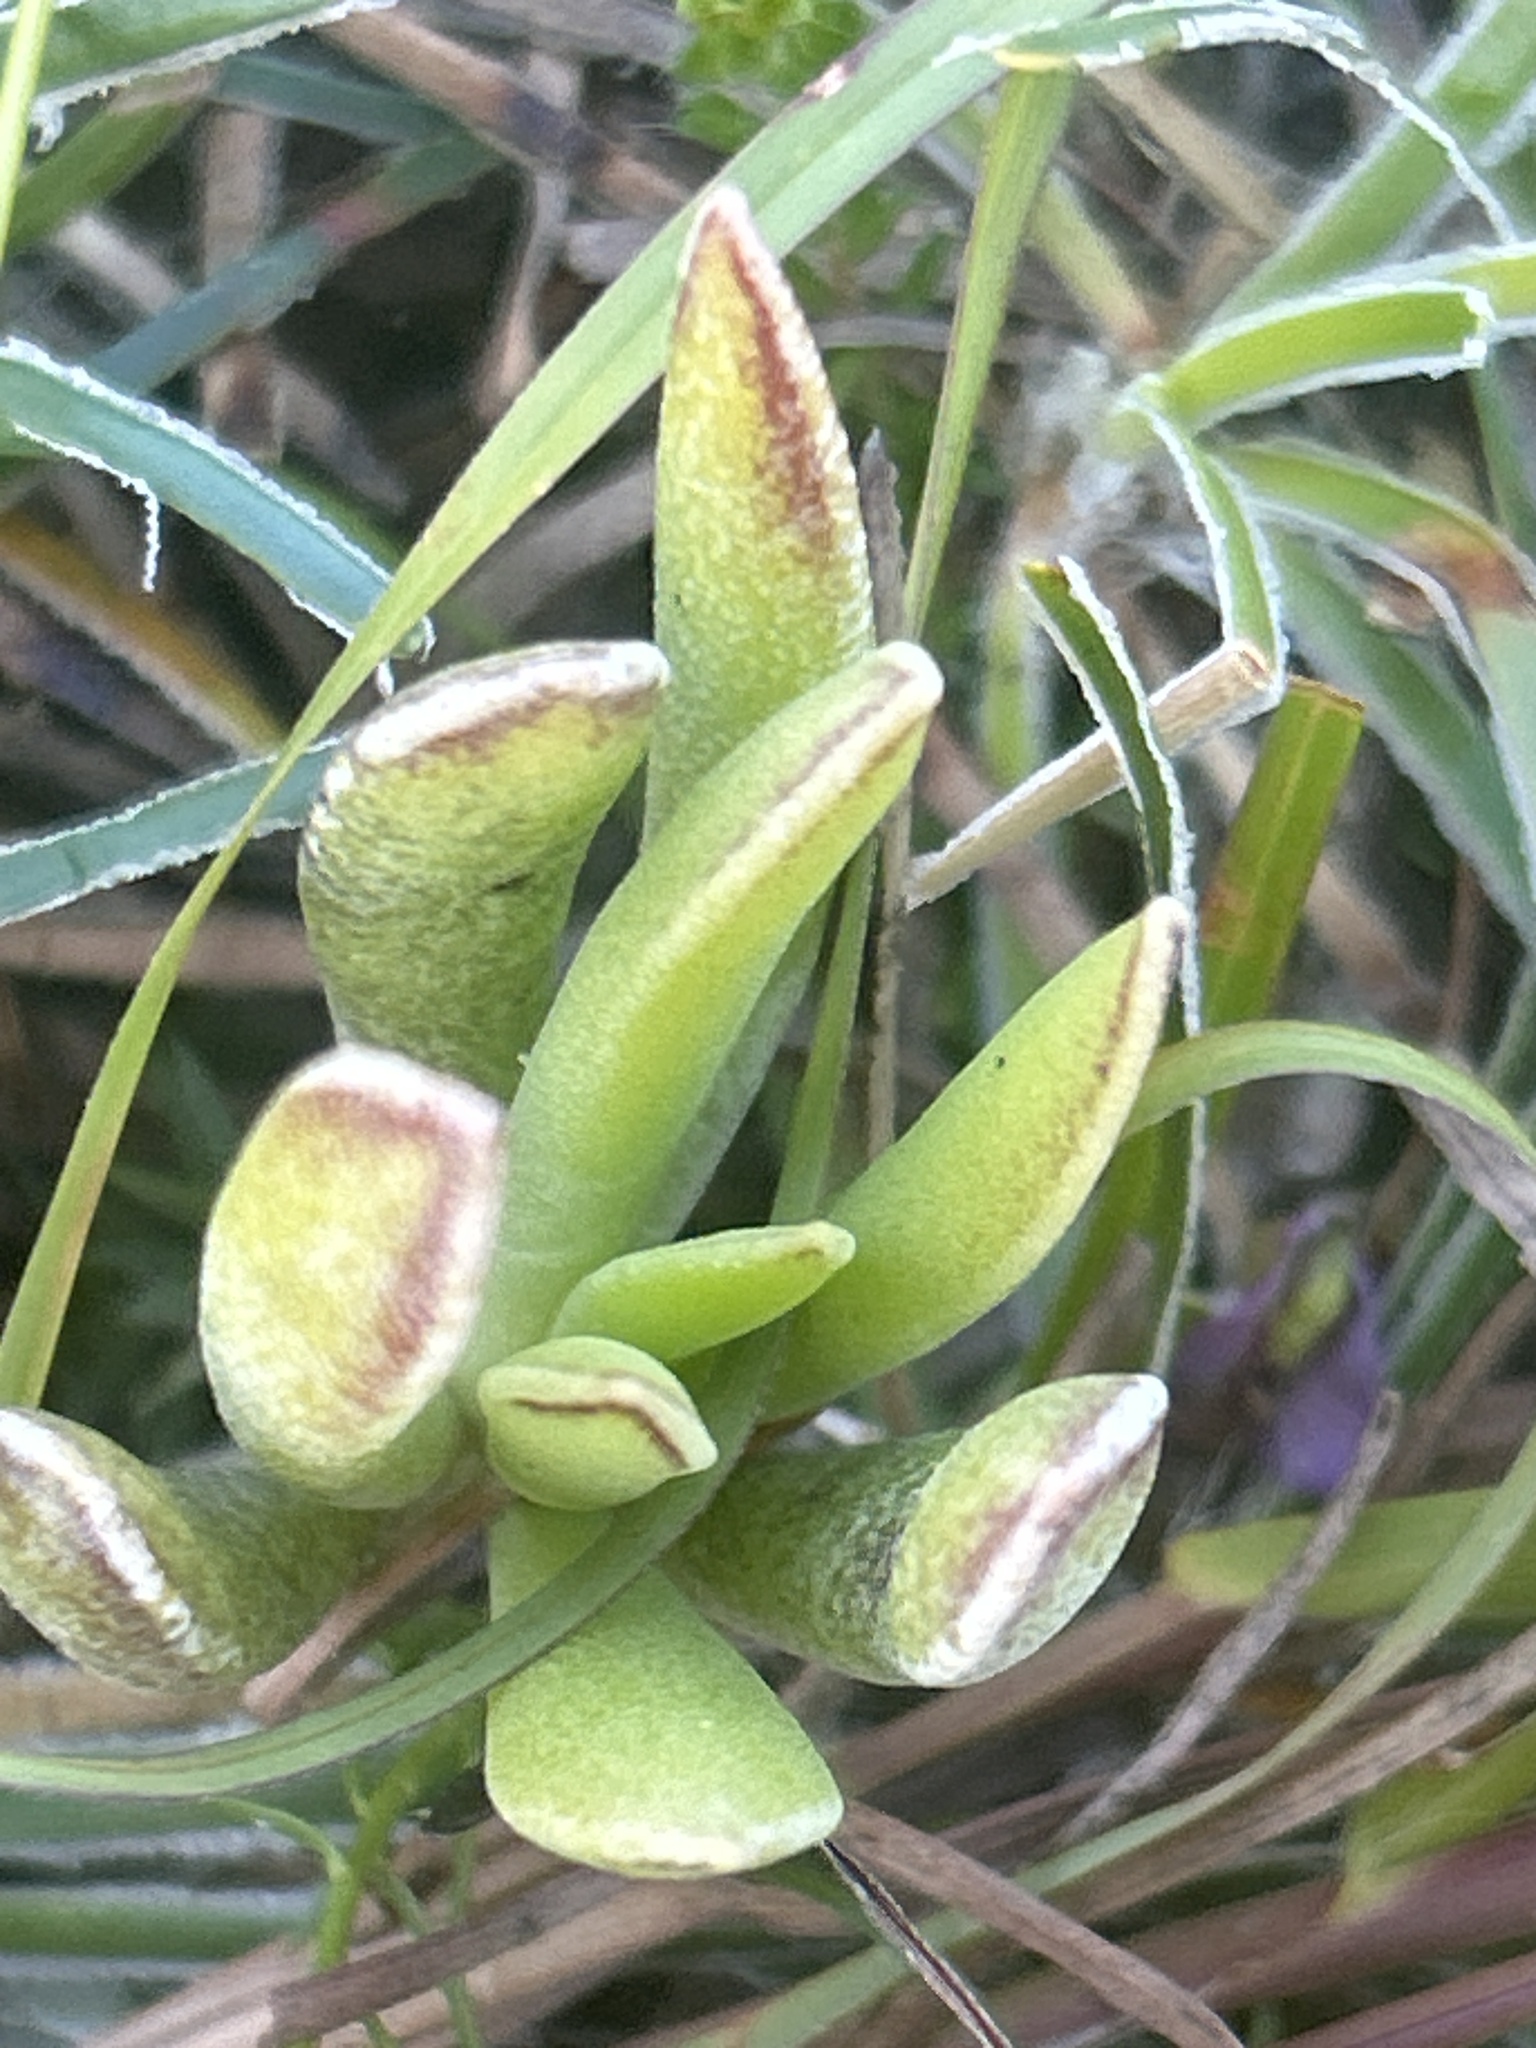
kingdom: Plantae
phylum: Tracheophyta
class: Magnoliopsida
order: Saxifragales
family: Crassulaceae
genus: Adromischus
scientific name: Adromischus caryophyllaceus
